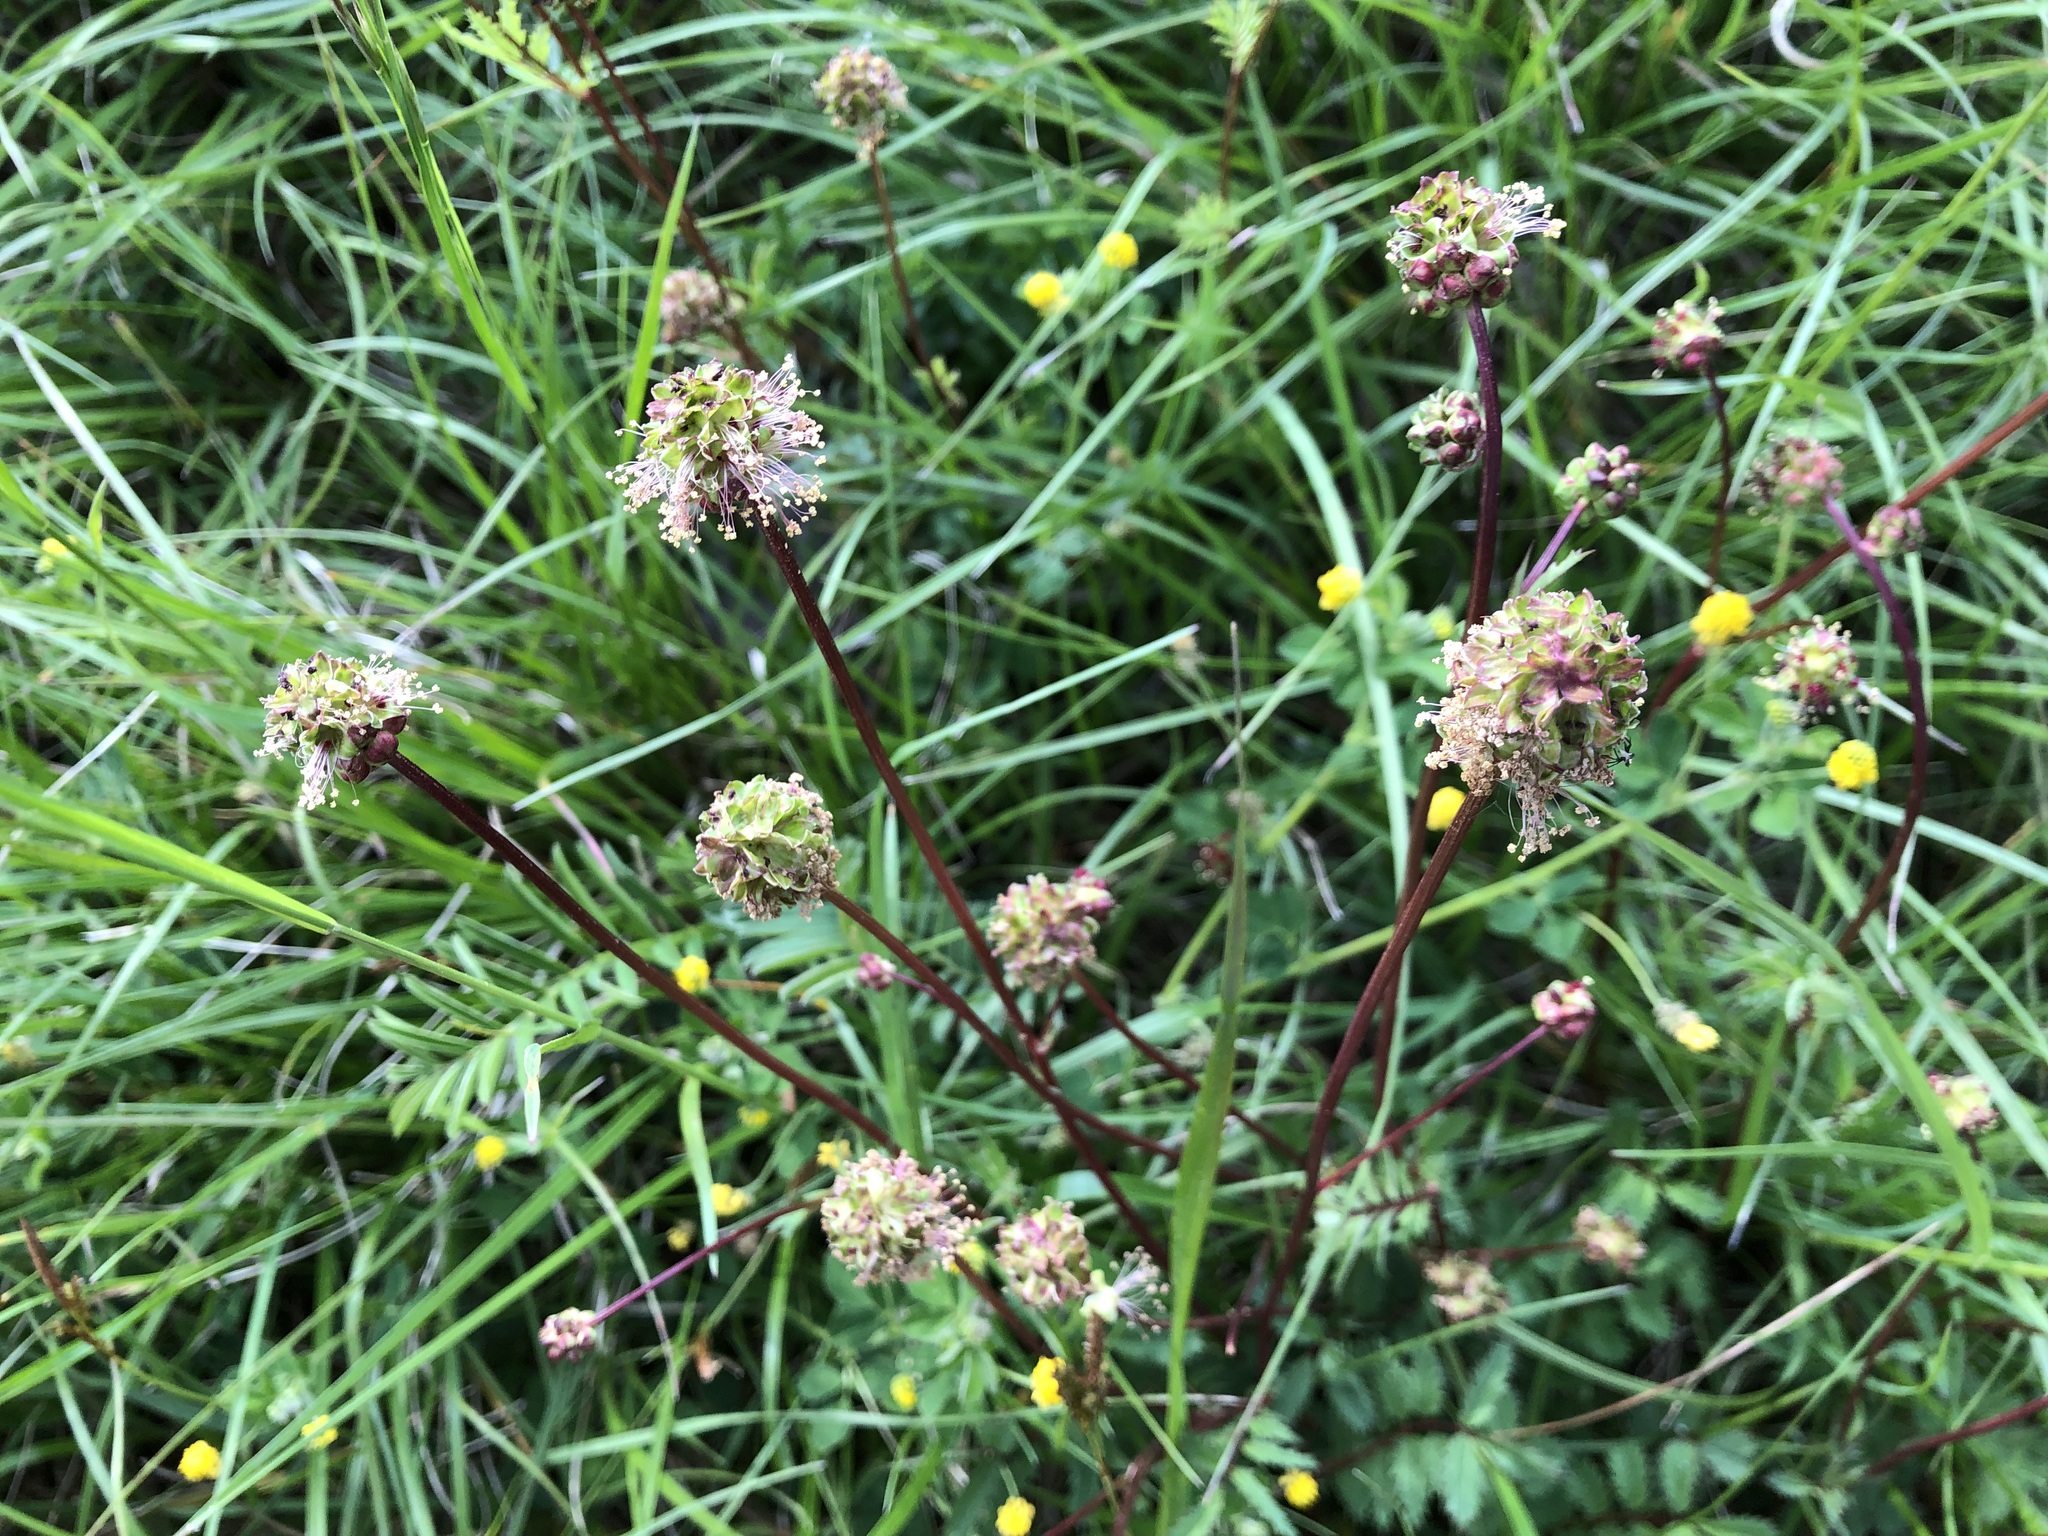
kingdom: Plantae
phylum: Tracheophyta
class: Magnoliopsida
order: Rosales
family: Rosaceae
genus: Poterium
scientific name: Poterium sanguisorba
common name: Salad burnet
